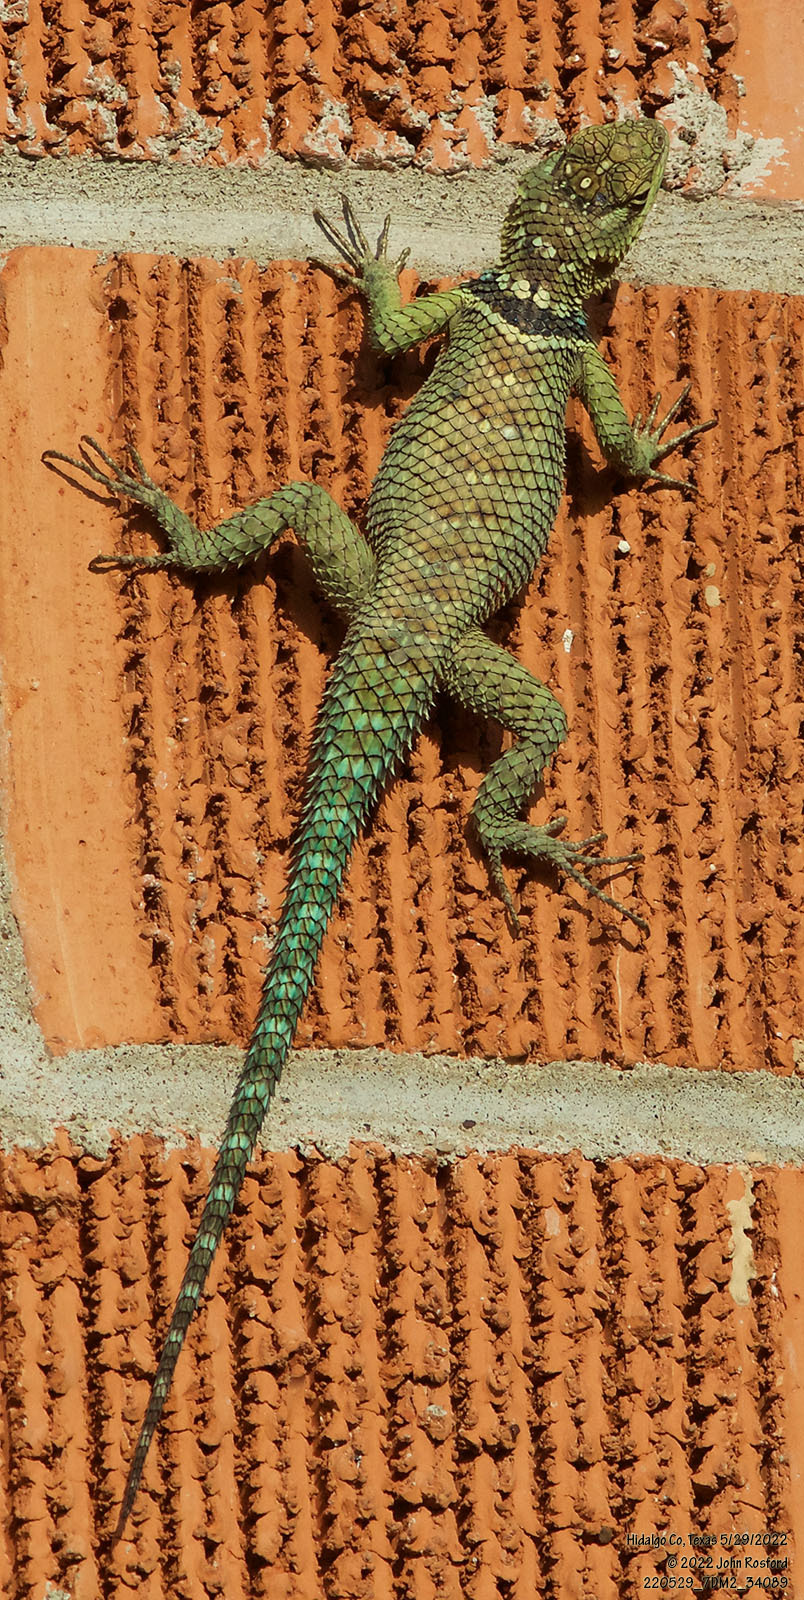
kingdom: Animalia
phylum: Chordata
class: Squamata
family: Phrynosomatidae
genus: Sceloporus
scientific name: Sceloporus cyanogenys
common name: Blue spiny lizard
